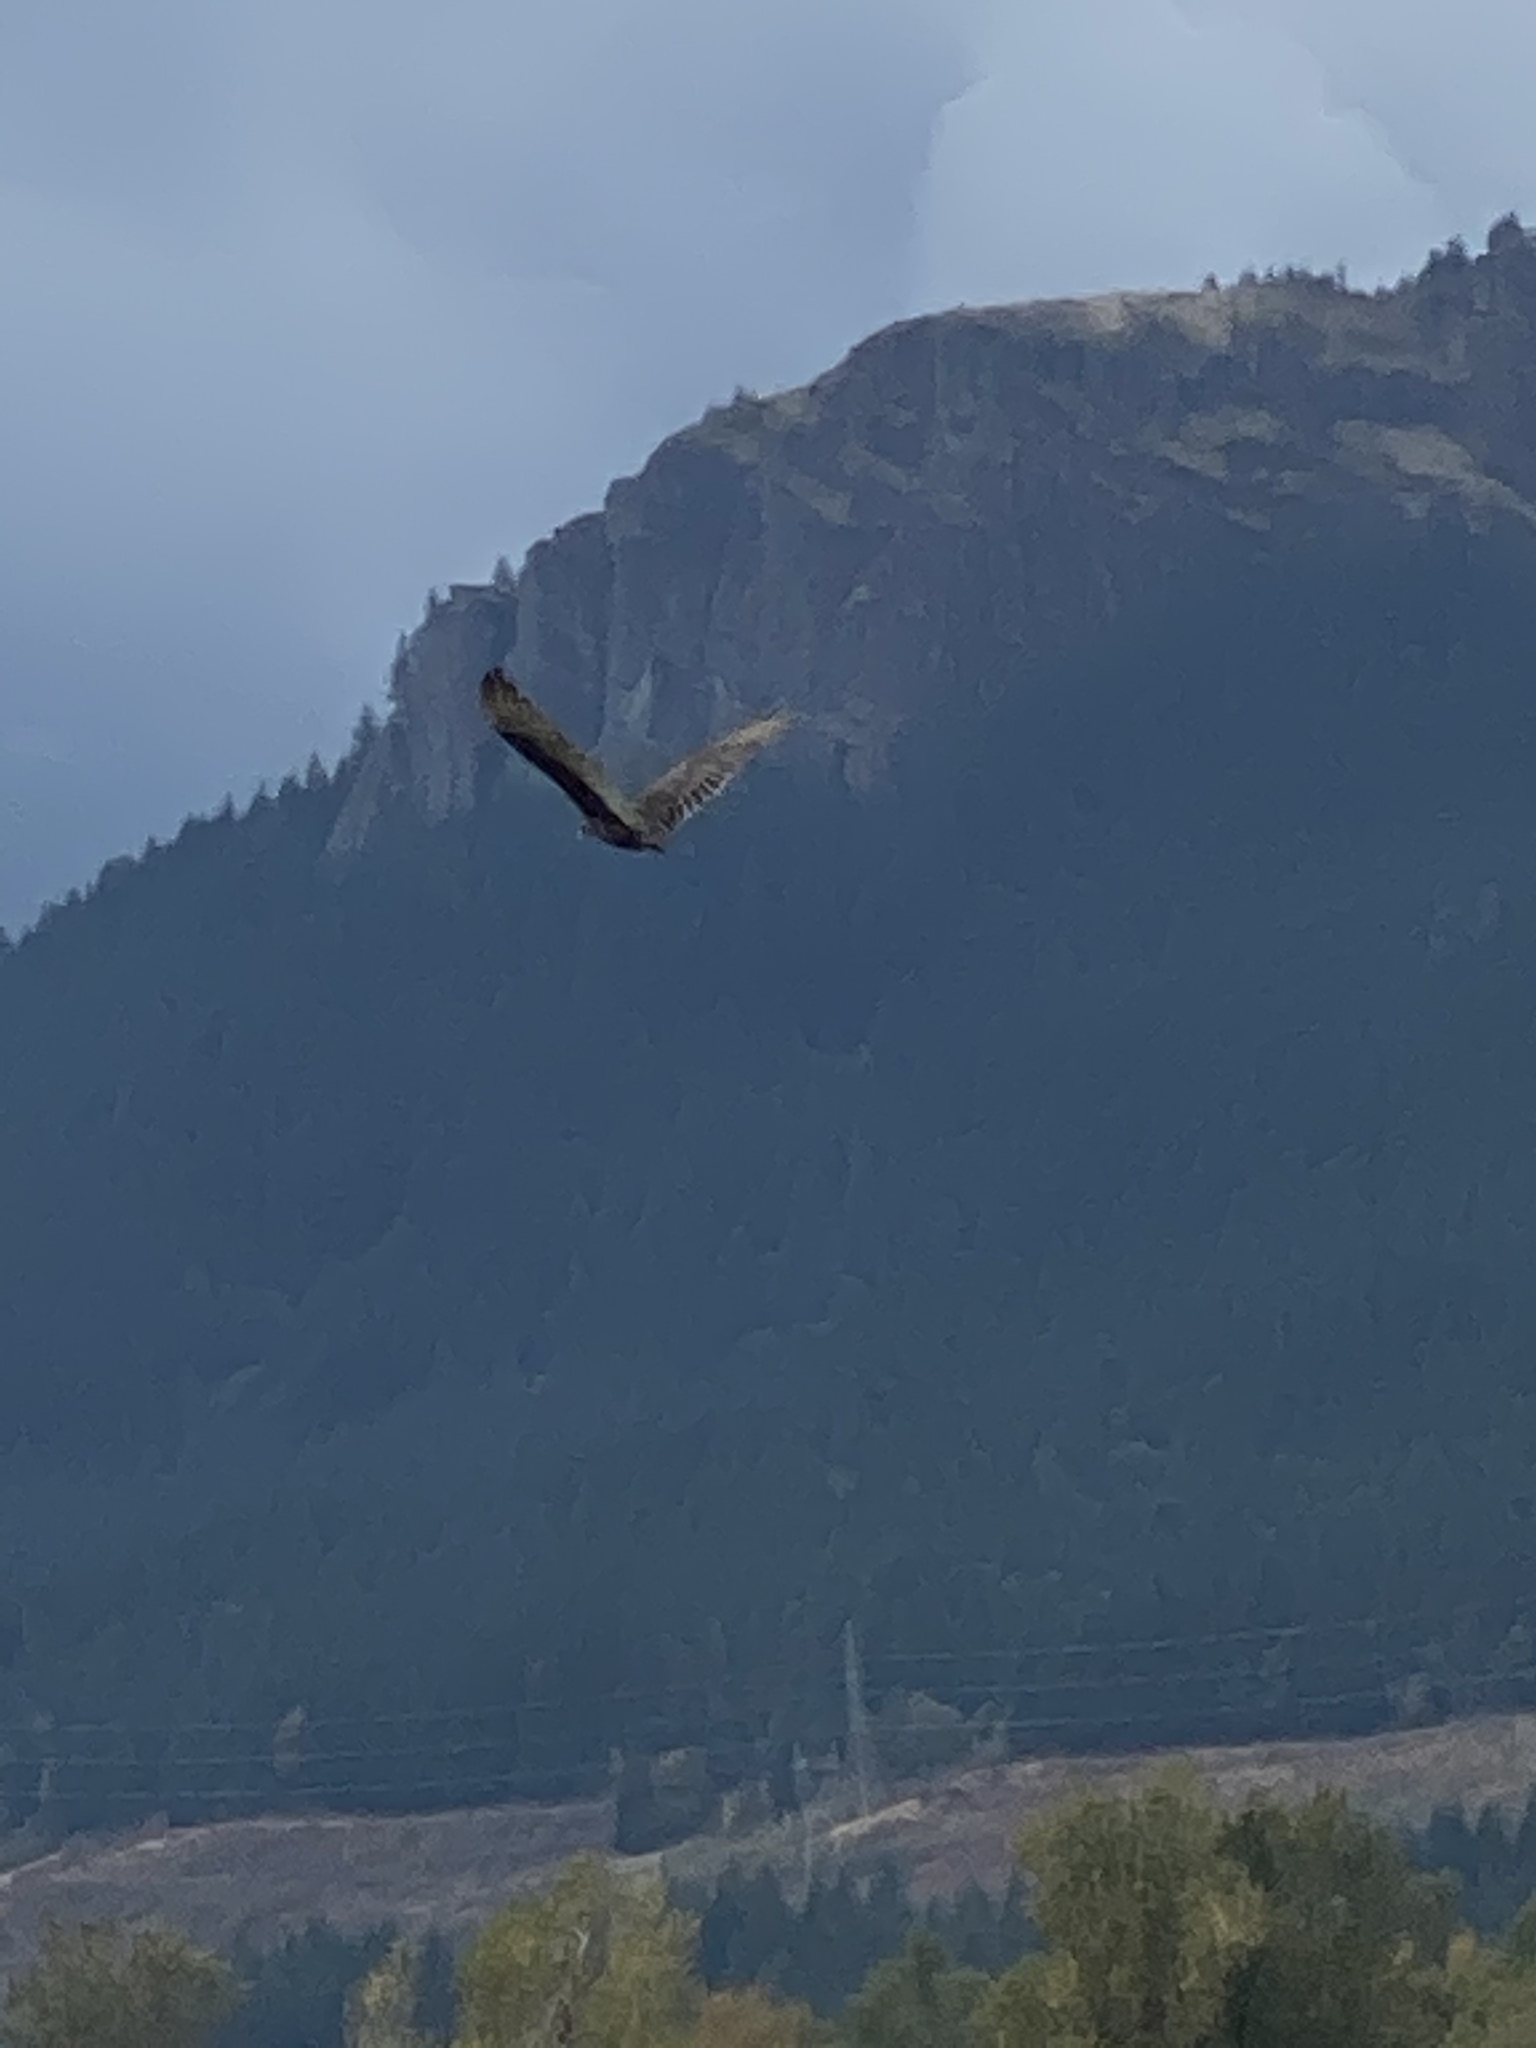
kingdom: Animalia
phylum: Chordata
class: Aves
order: Accipitriformes
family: Cathartidae
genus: Cathartes
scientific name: Cathartes aura
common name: Turkey vulture
